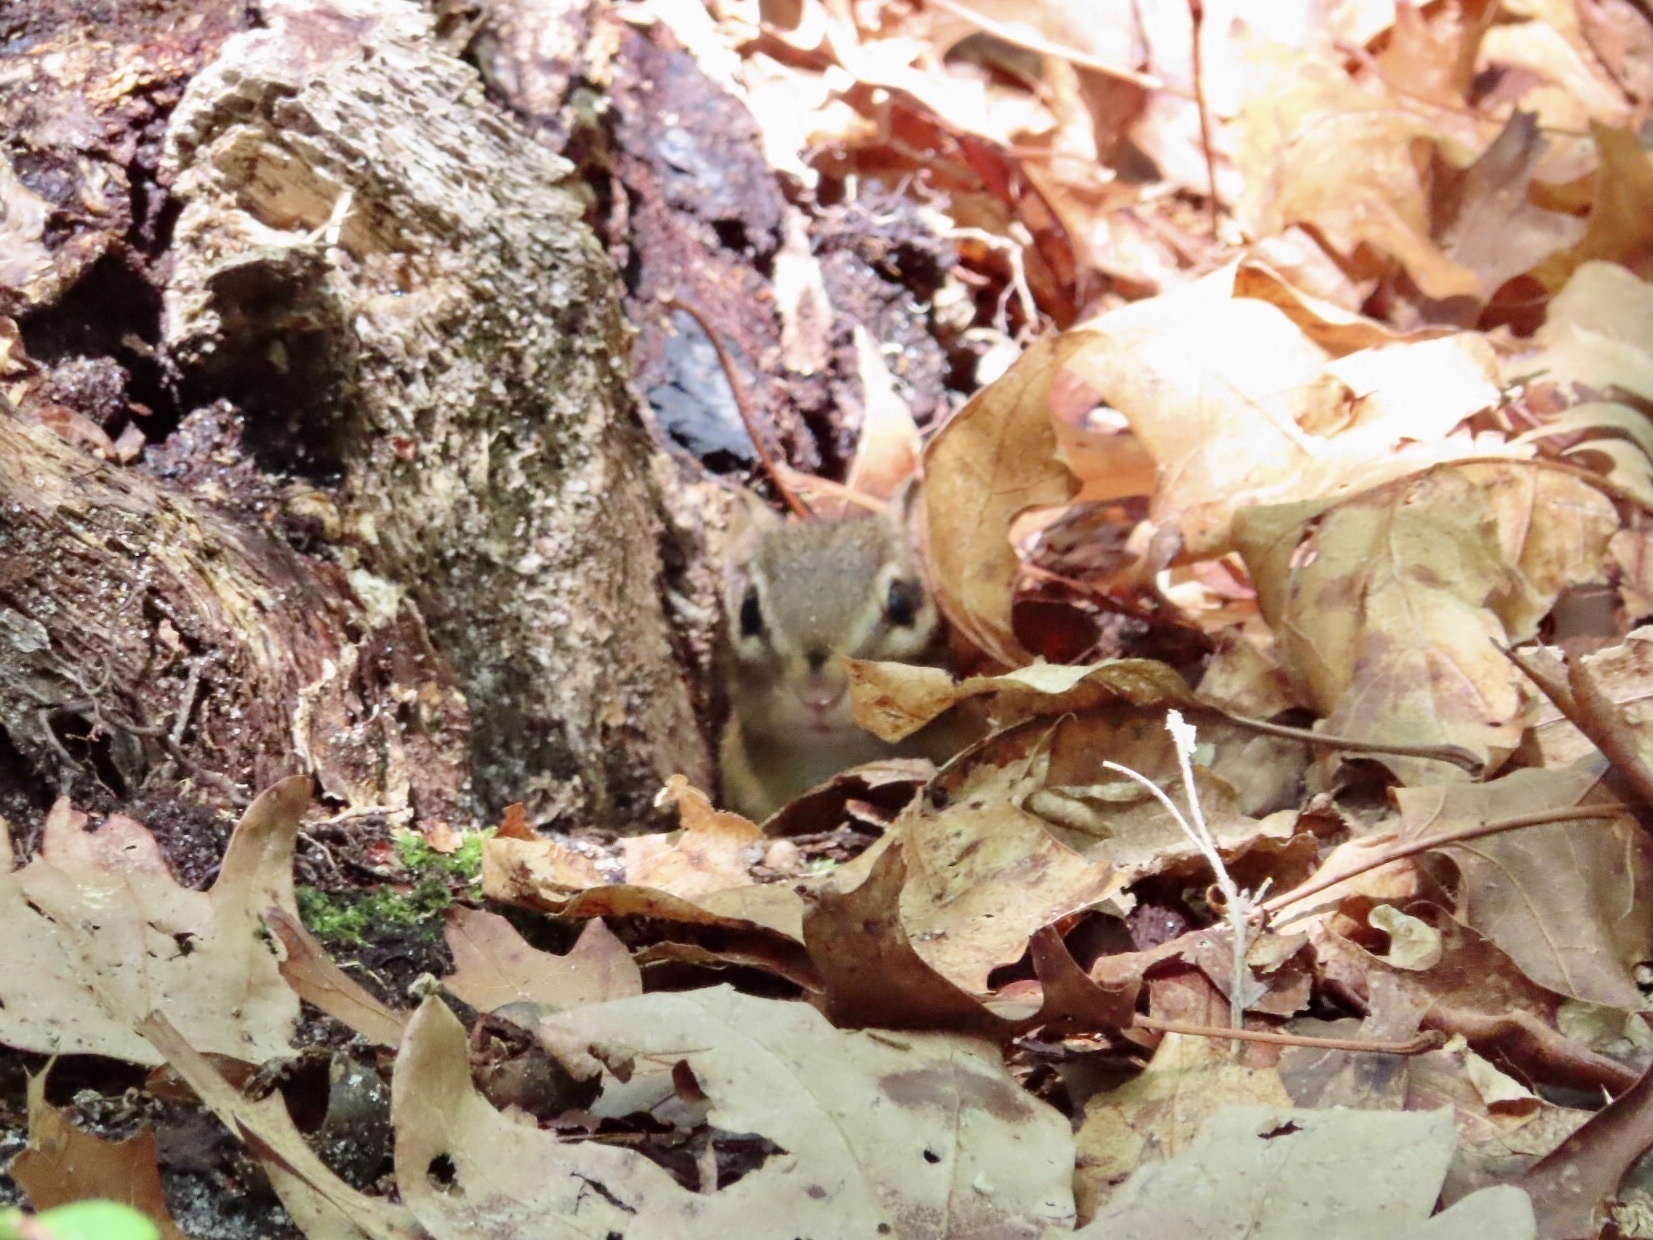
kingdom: Animalia
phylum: Chordata
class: Mammalia
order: Rodentia
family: Sciuridae
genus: Tamias
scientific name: Tamias striatus
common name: Eastern chipmunk
